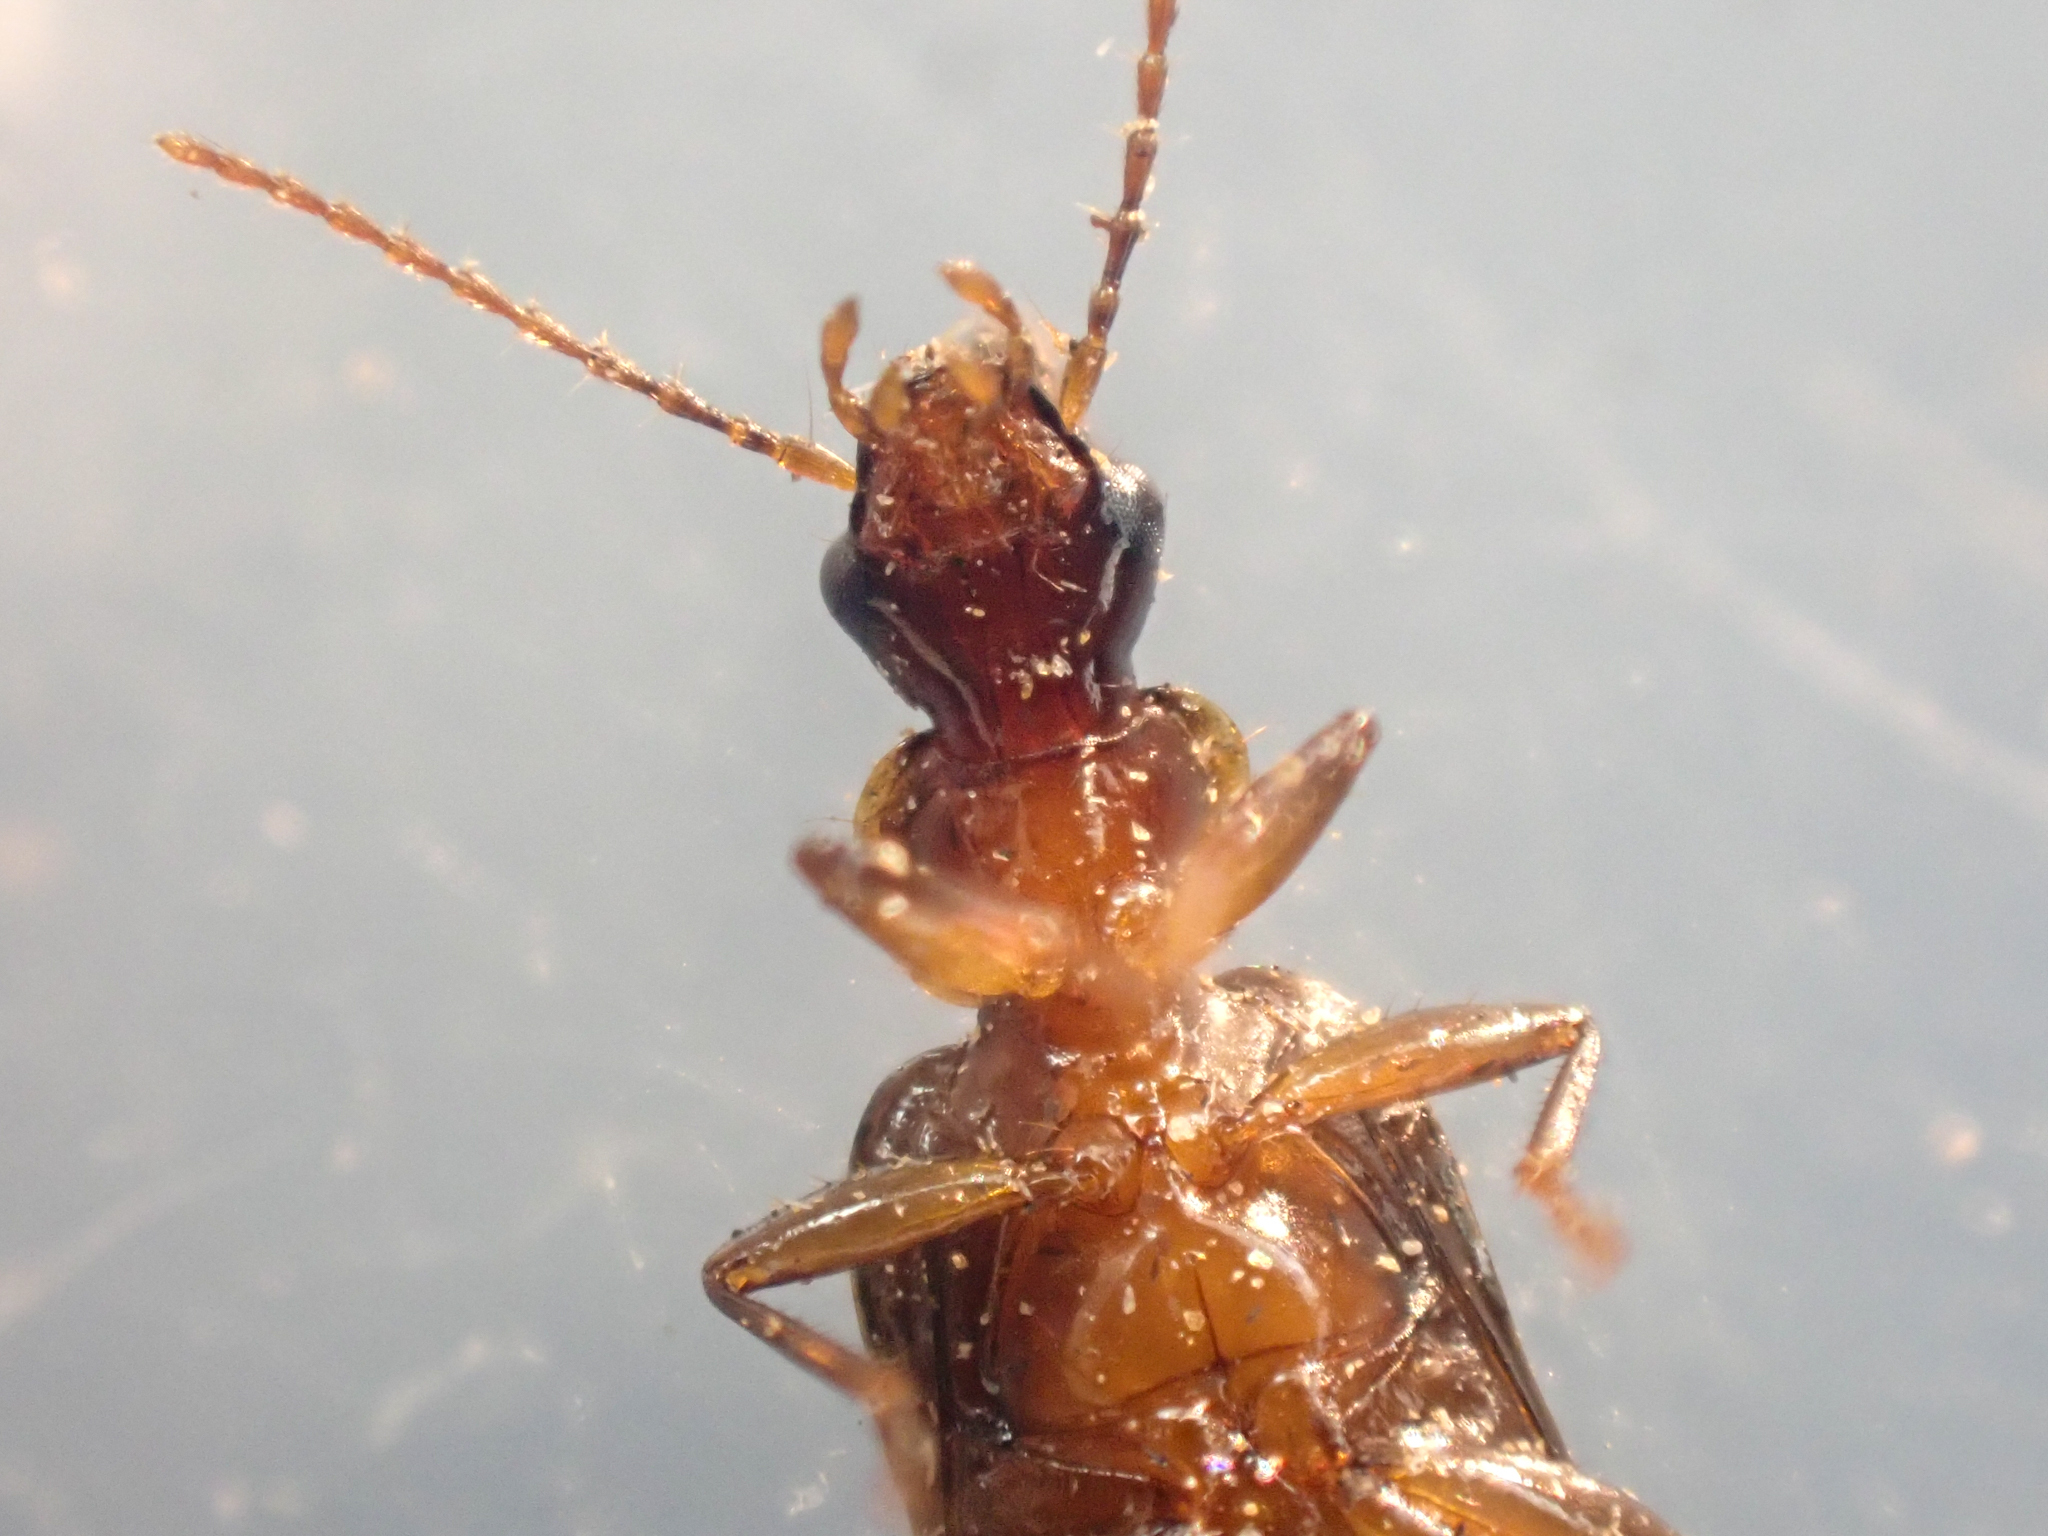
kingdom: Animalia
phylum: Arthropoda
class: Insecta
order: Coleoptera
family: Carabidae
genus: Dromius
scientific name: Dromius piceus
